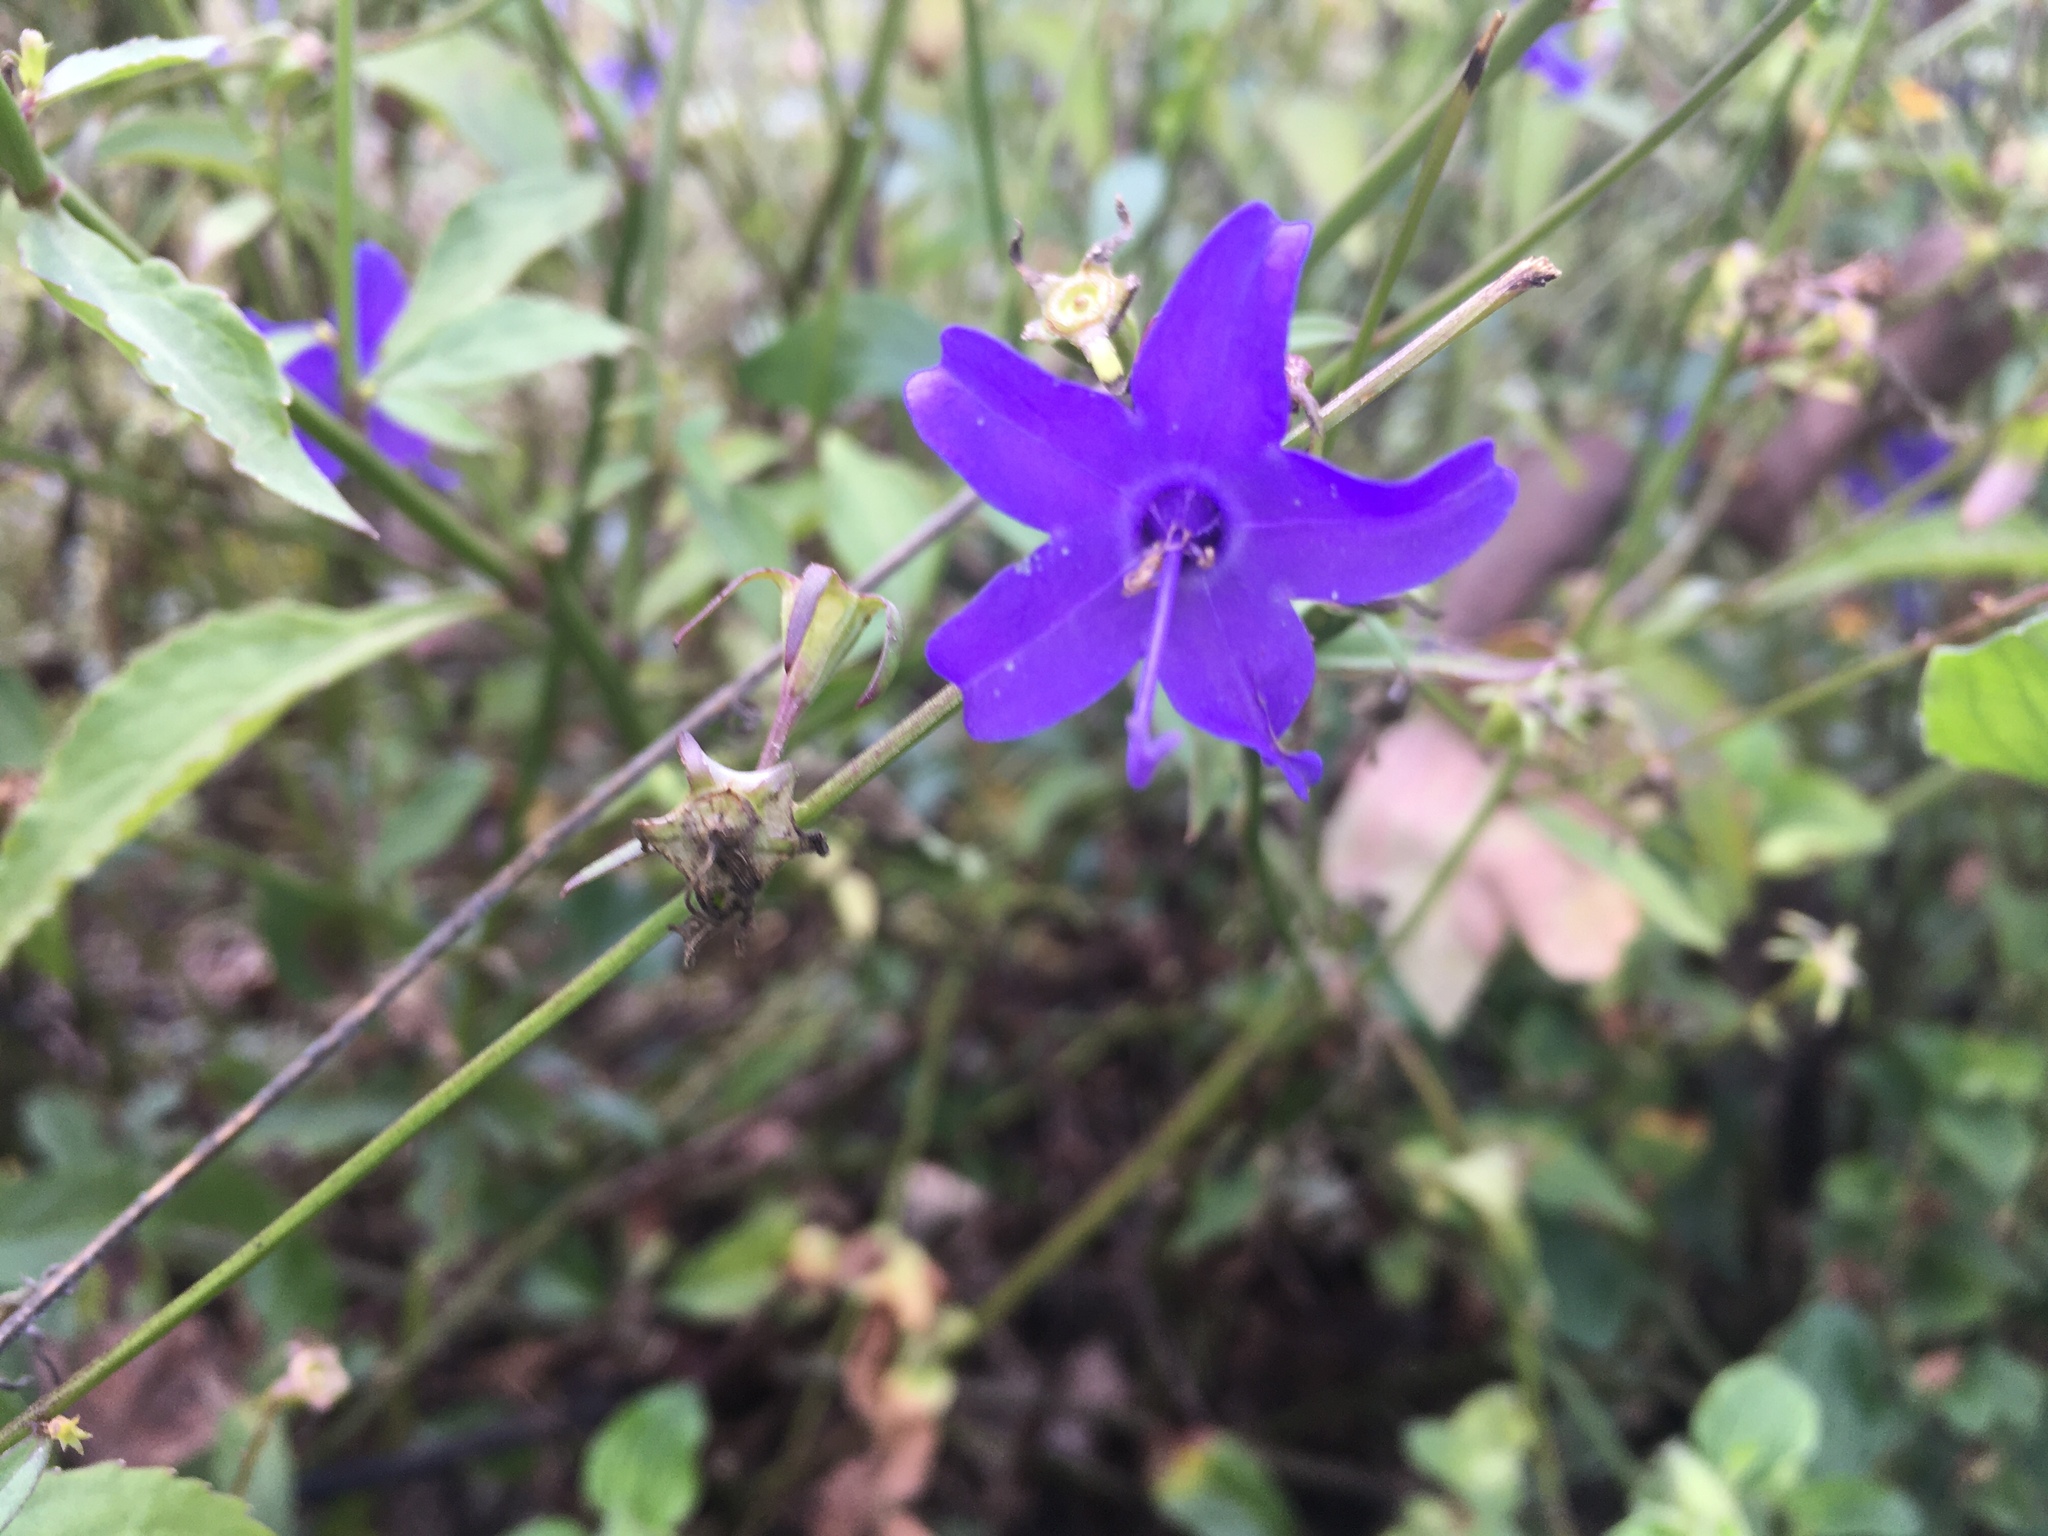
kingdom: Plantae
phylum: Tracheophyta
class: Magnoliopsida
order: Asterales
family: Campanulaceae
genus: Campanulastrum
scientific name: Campanulastrum americanum
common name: American bellflower
